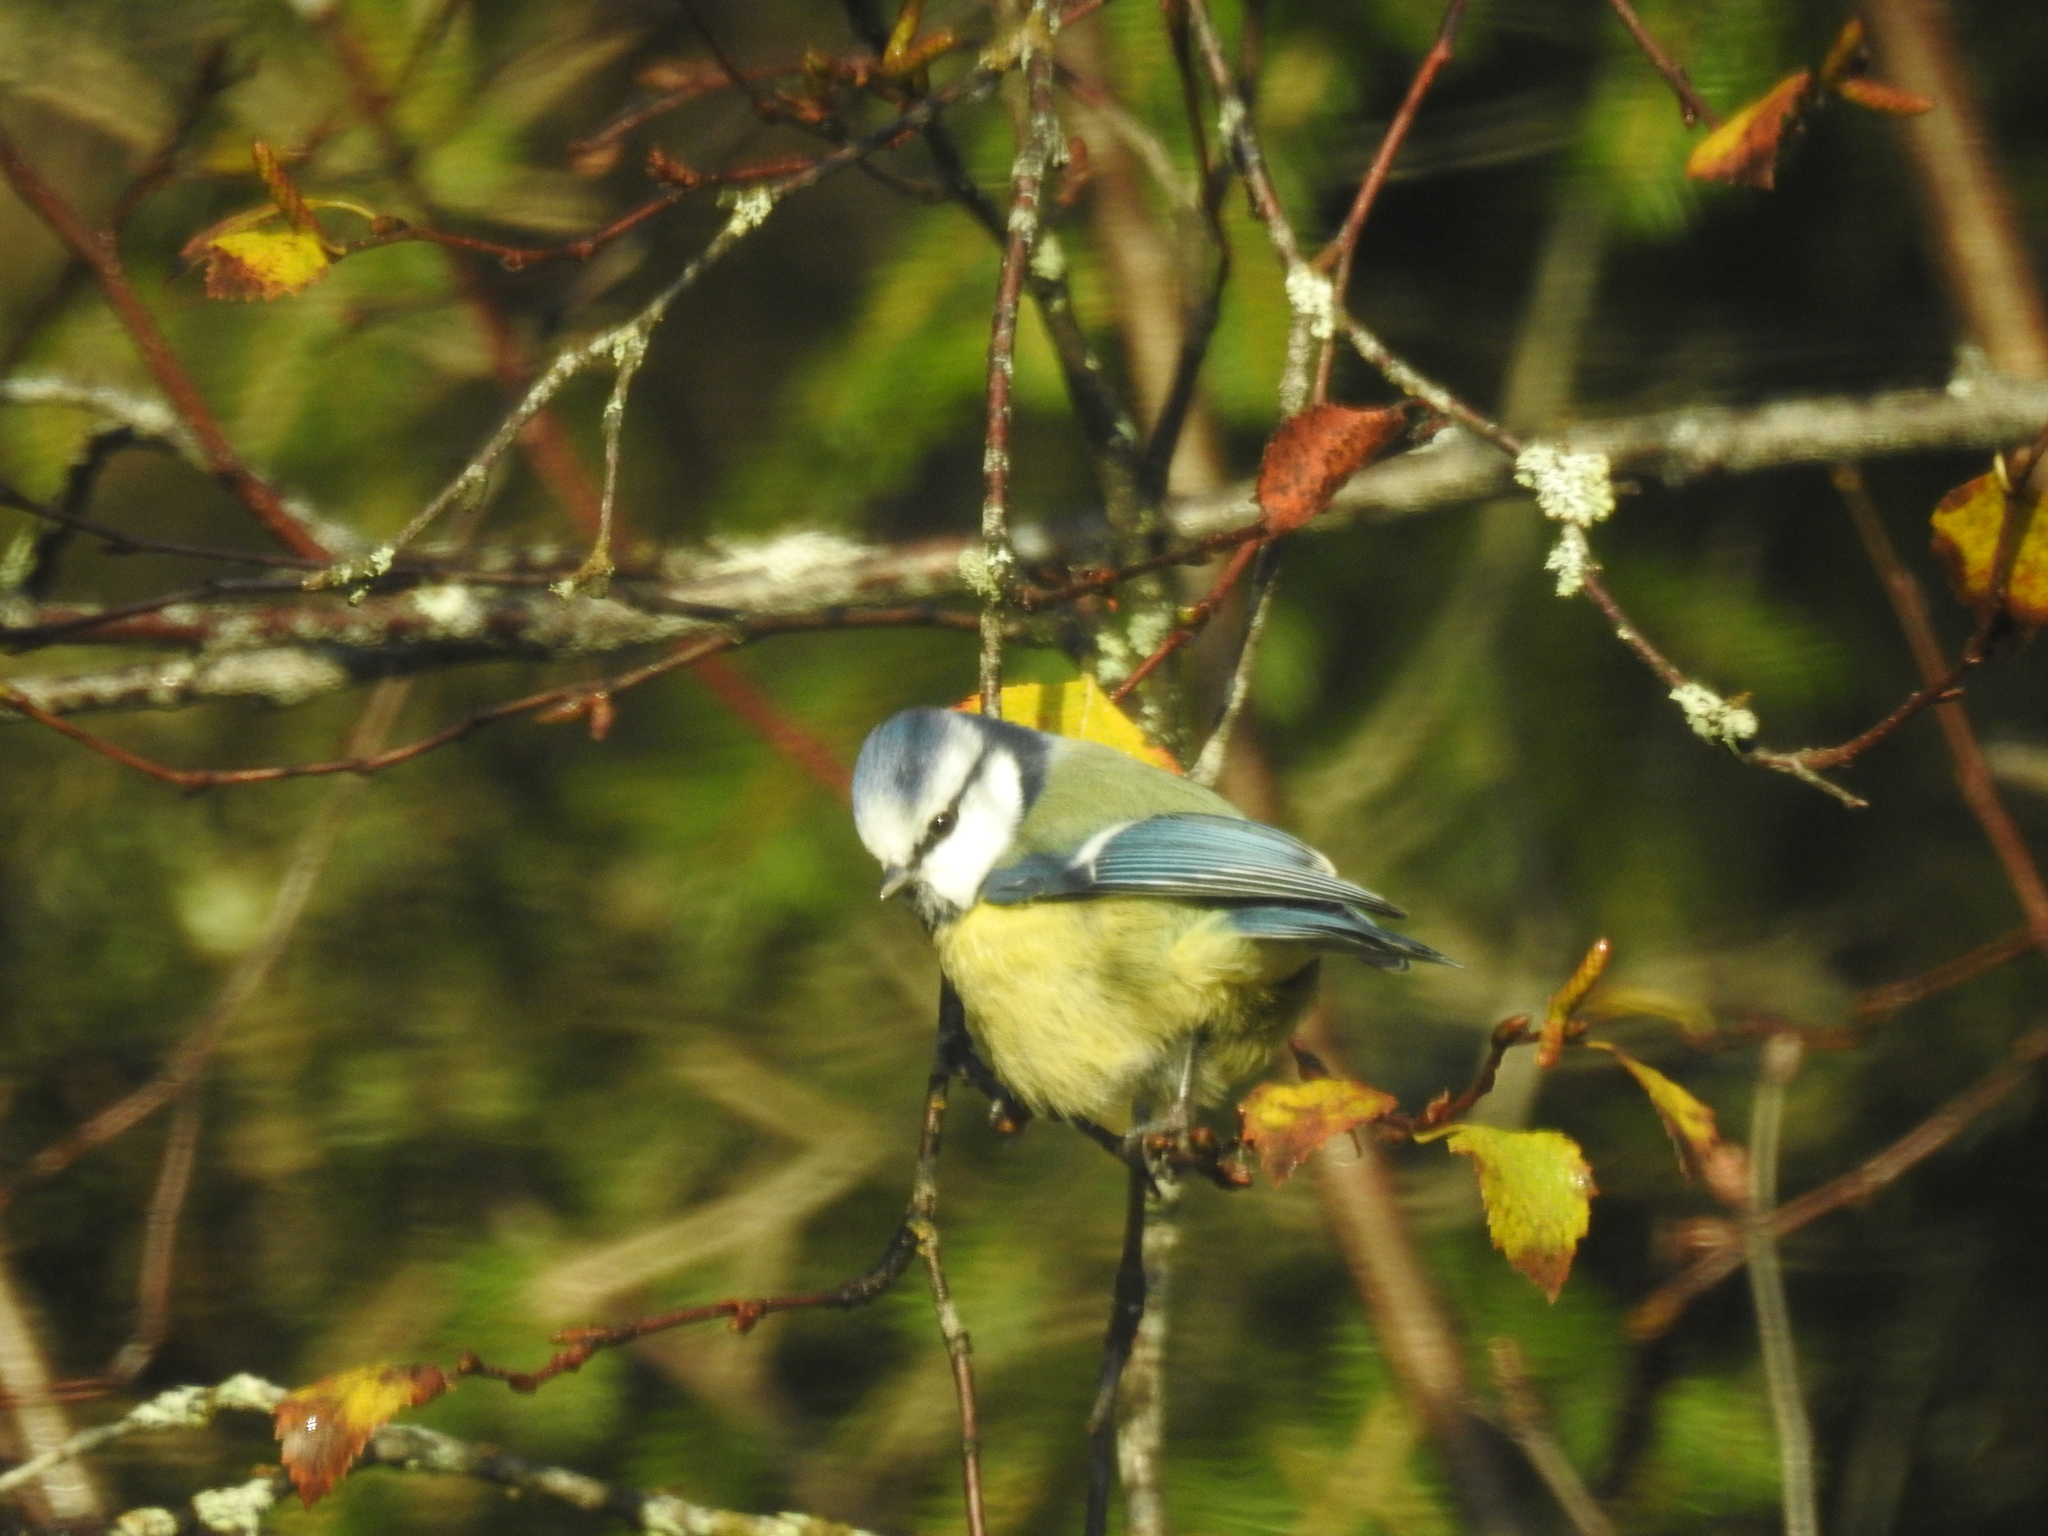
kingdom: Animalia
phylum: Chordata
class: Aves
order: Passeriformes
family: Paridae
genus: Cyanistes
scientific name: Cyanistes caeruleus
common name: Eurasian blue tit
